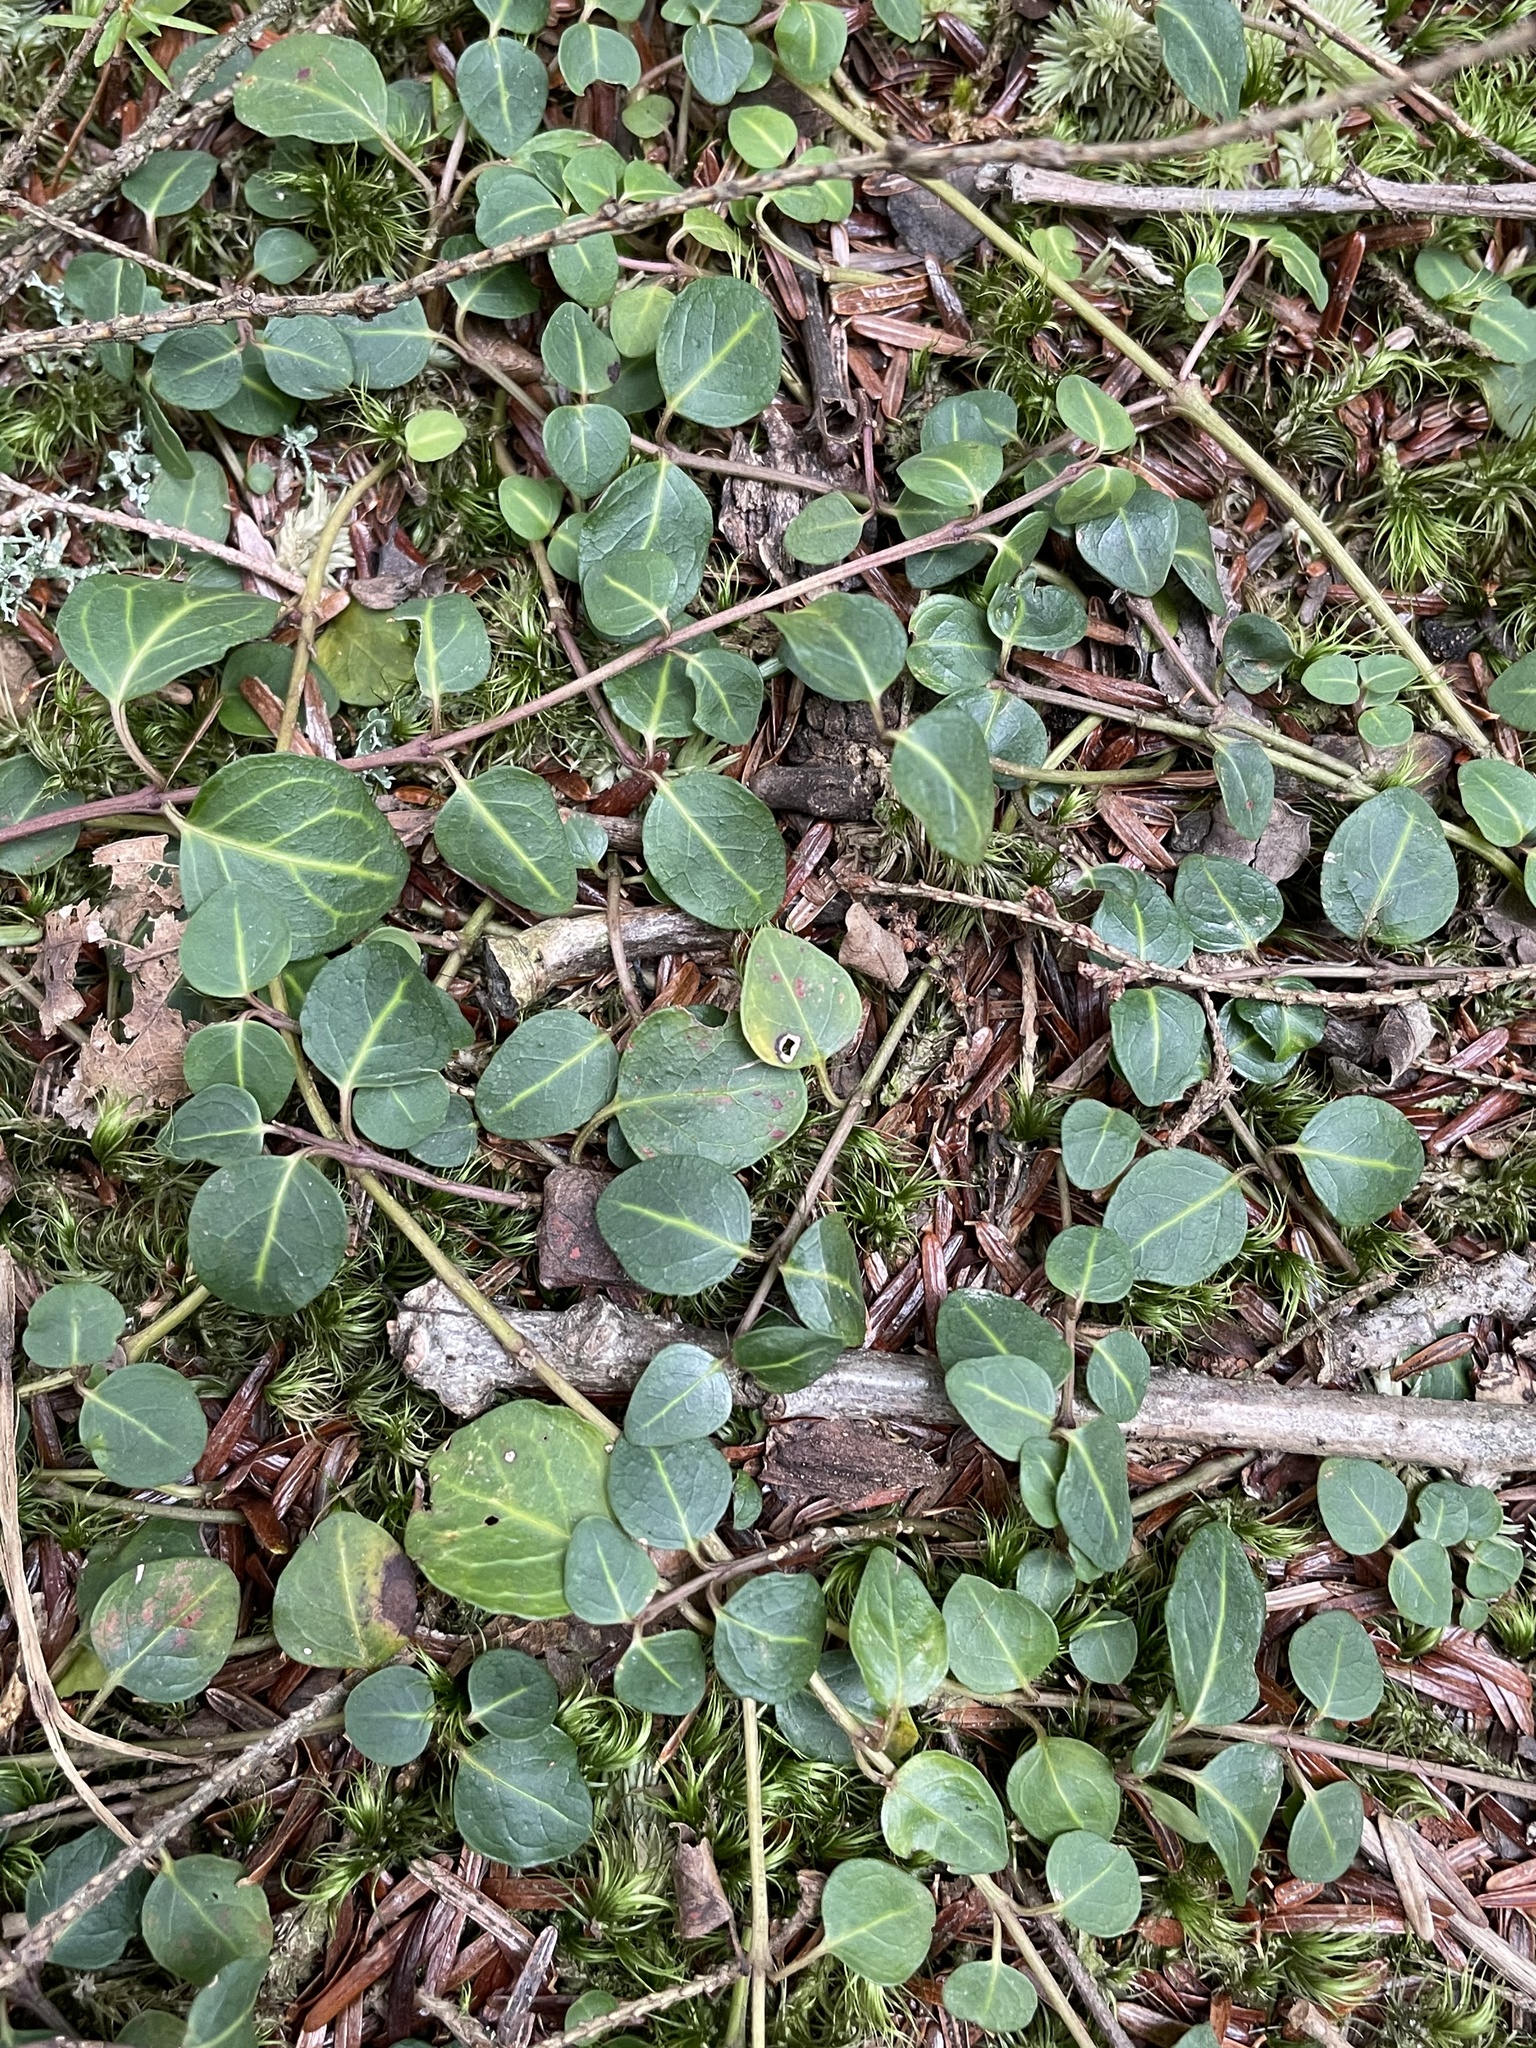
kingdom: Plantae
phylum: Tracheophyta
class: Magnoliopsida
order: Gentianales
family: Rubiaceae
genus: Mitchella
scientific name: Mitchella repens
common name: Partridge-berry
